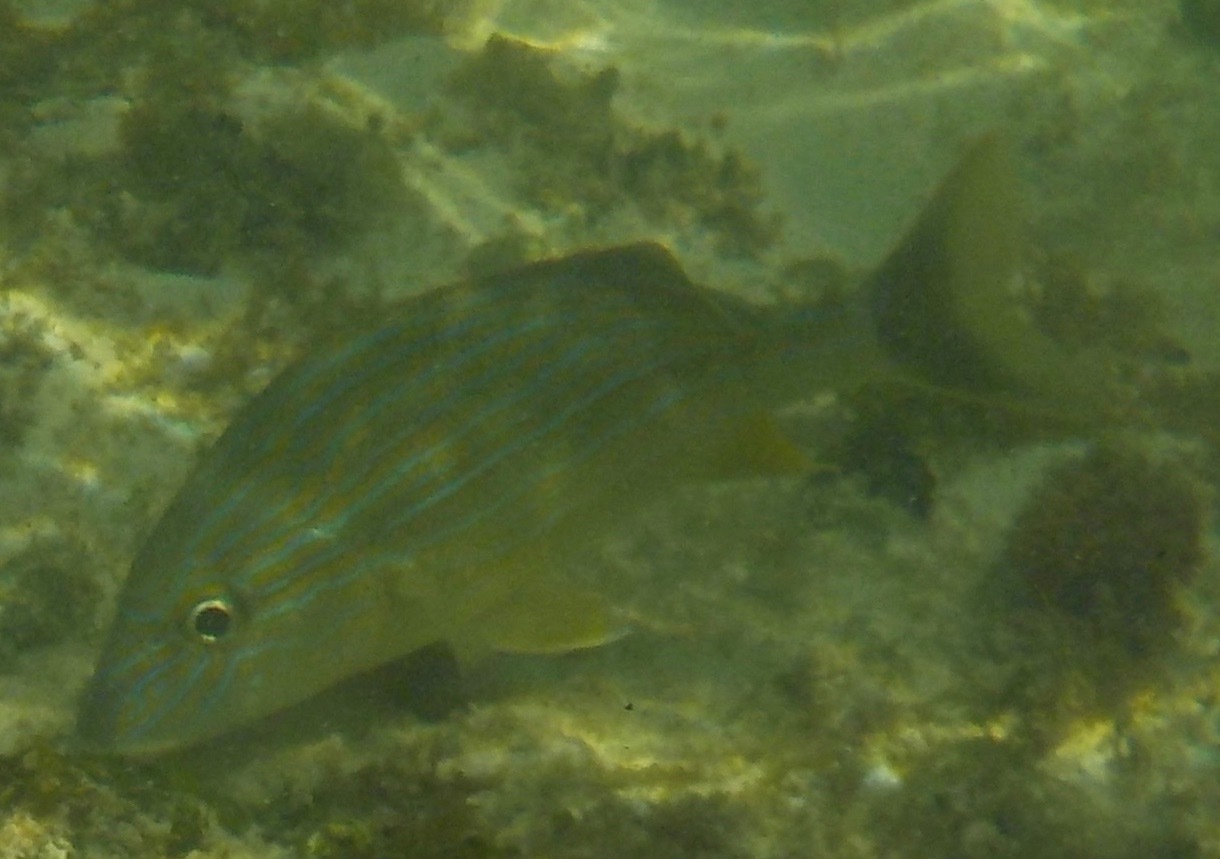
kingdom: Animalia
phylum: Chordata
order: Perciformes
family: Haemulidae
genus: Haemulon
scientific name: Haemulon sciurus
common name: Bluestriped grunt
